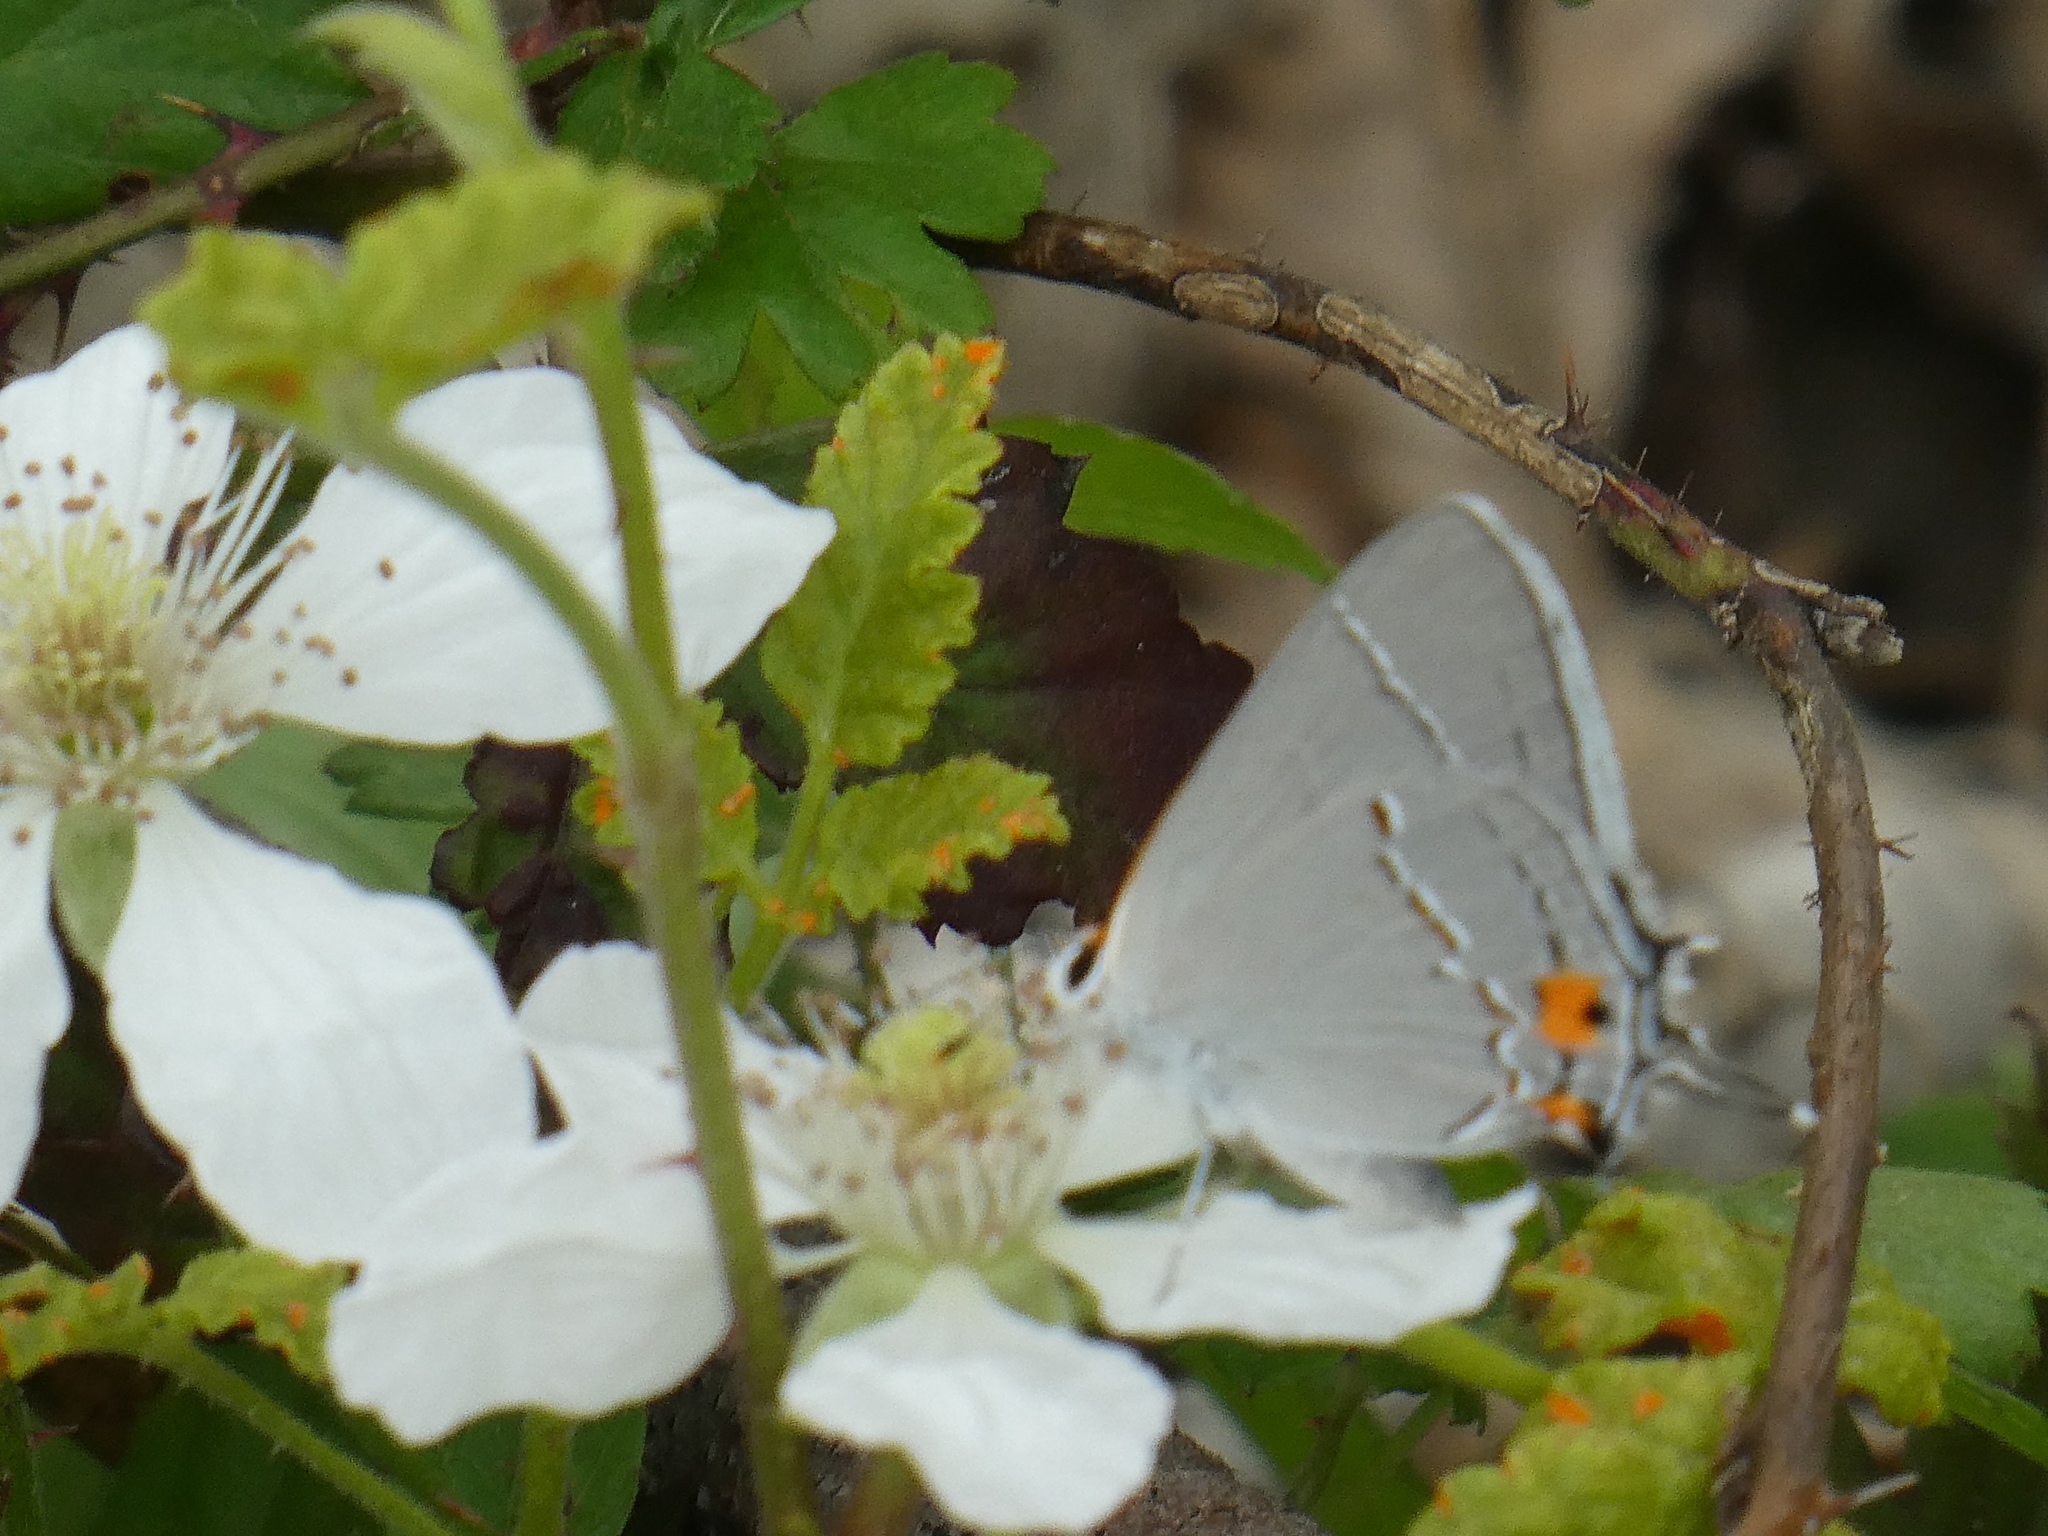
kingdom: Animalia
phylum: Arthropoda
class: Insecta
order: Lepidoptera
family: Lycaenidae
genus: Strymon
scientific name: Strymon melinus
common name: Gray hairstreak
